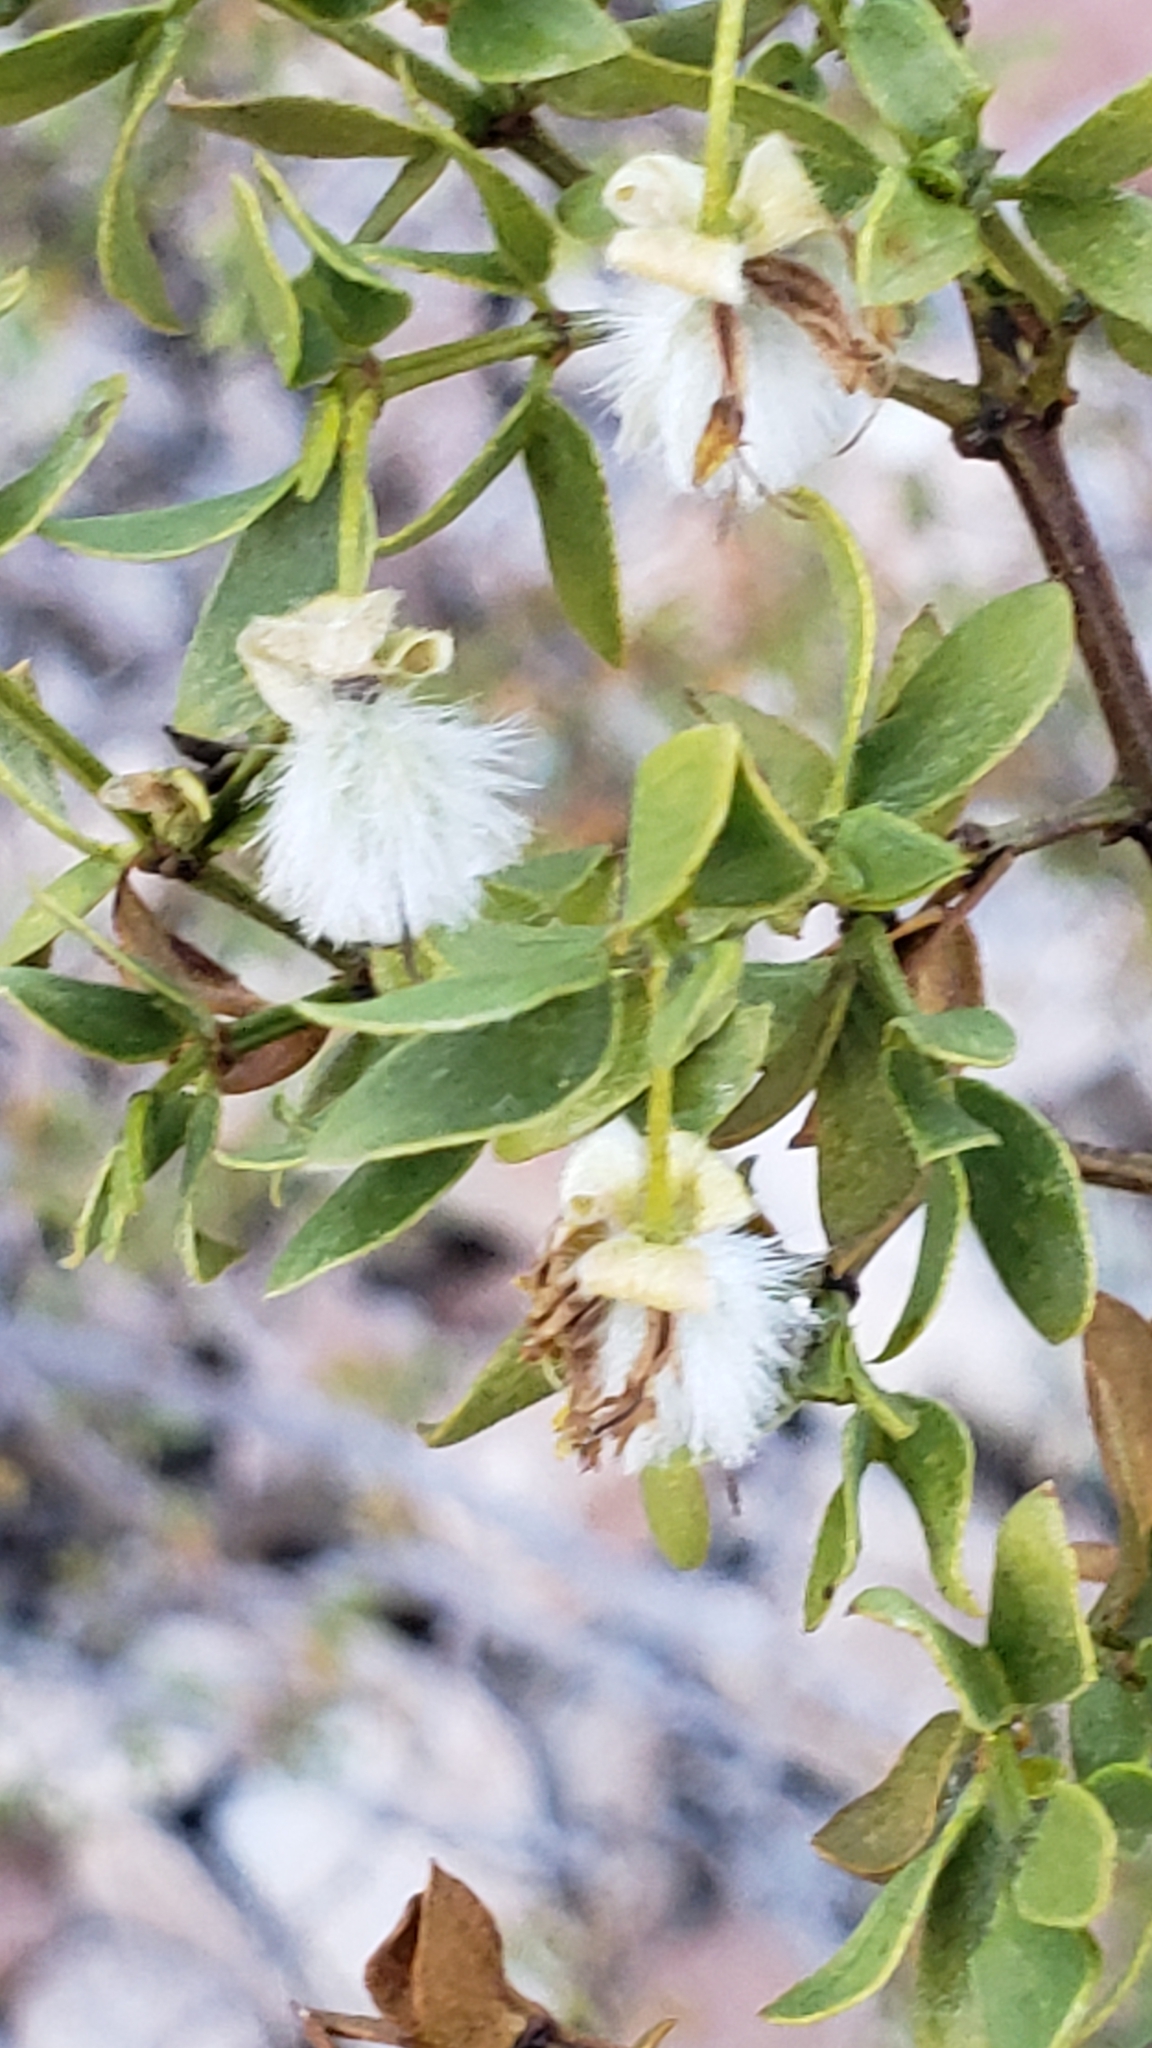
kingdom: Plantae
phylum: Tracheophyta
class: Magnoliopsida
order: Zygophyllales
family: Zygophyllaceae
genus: Larrea
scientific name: Larrea tridentata
